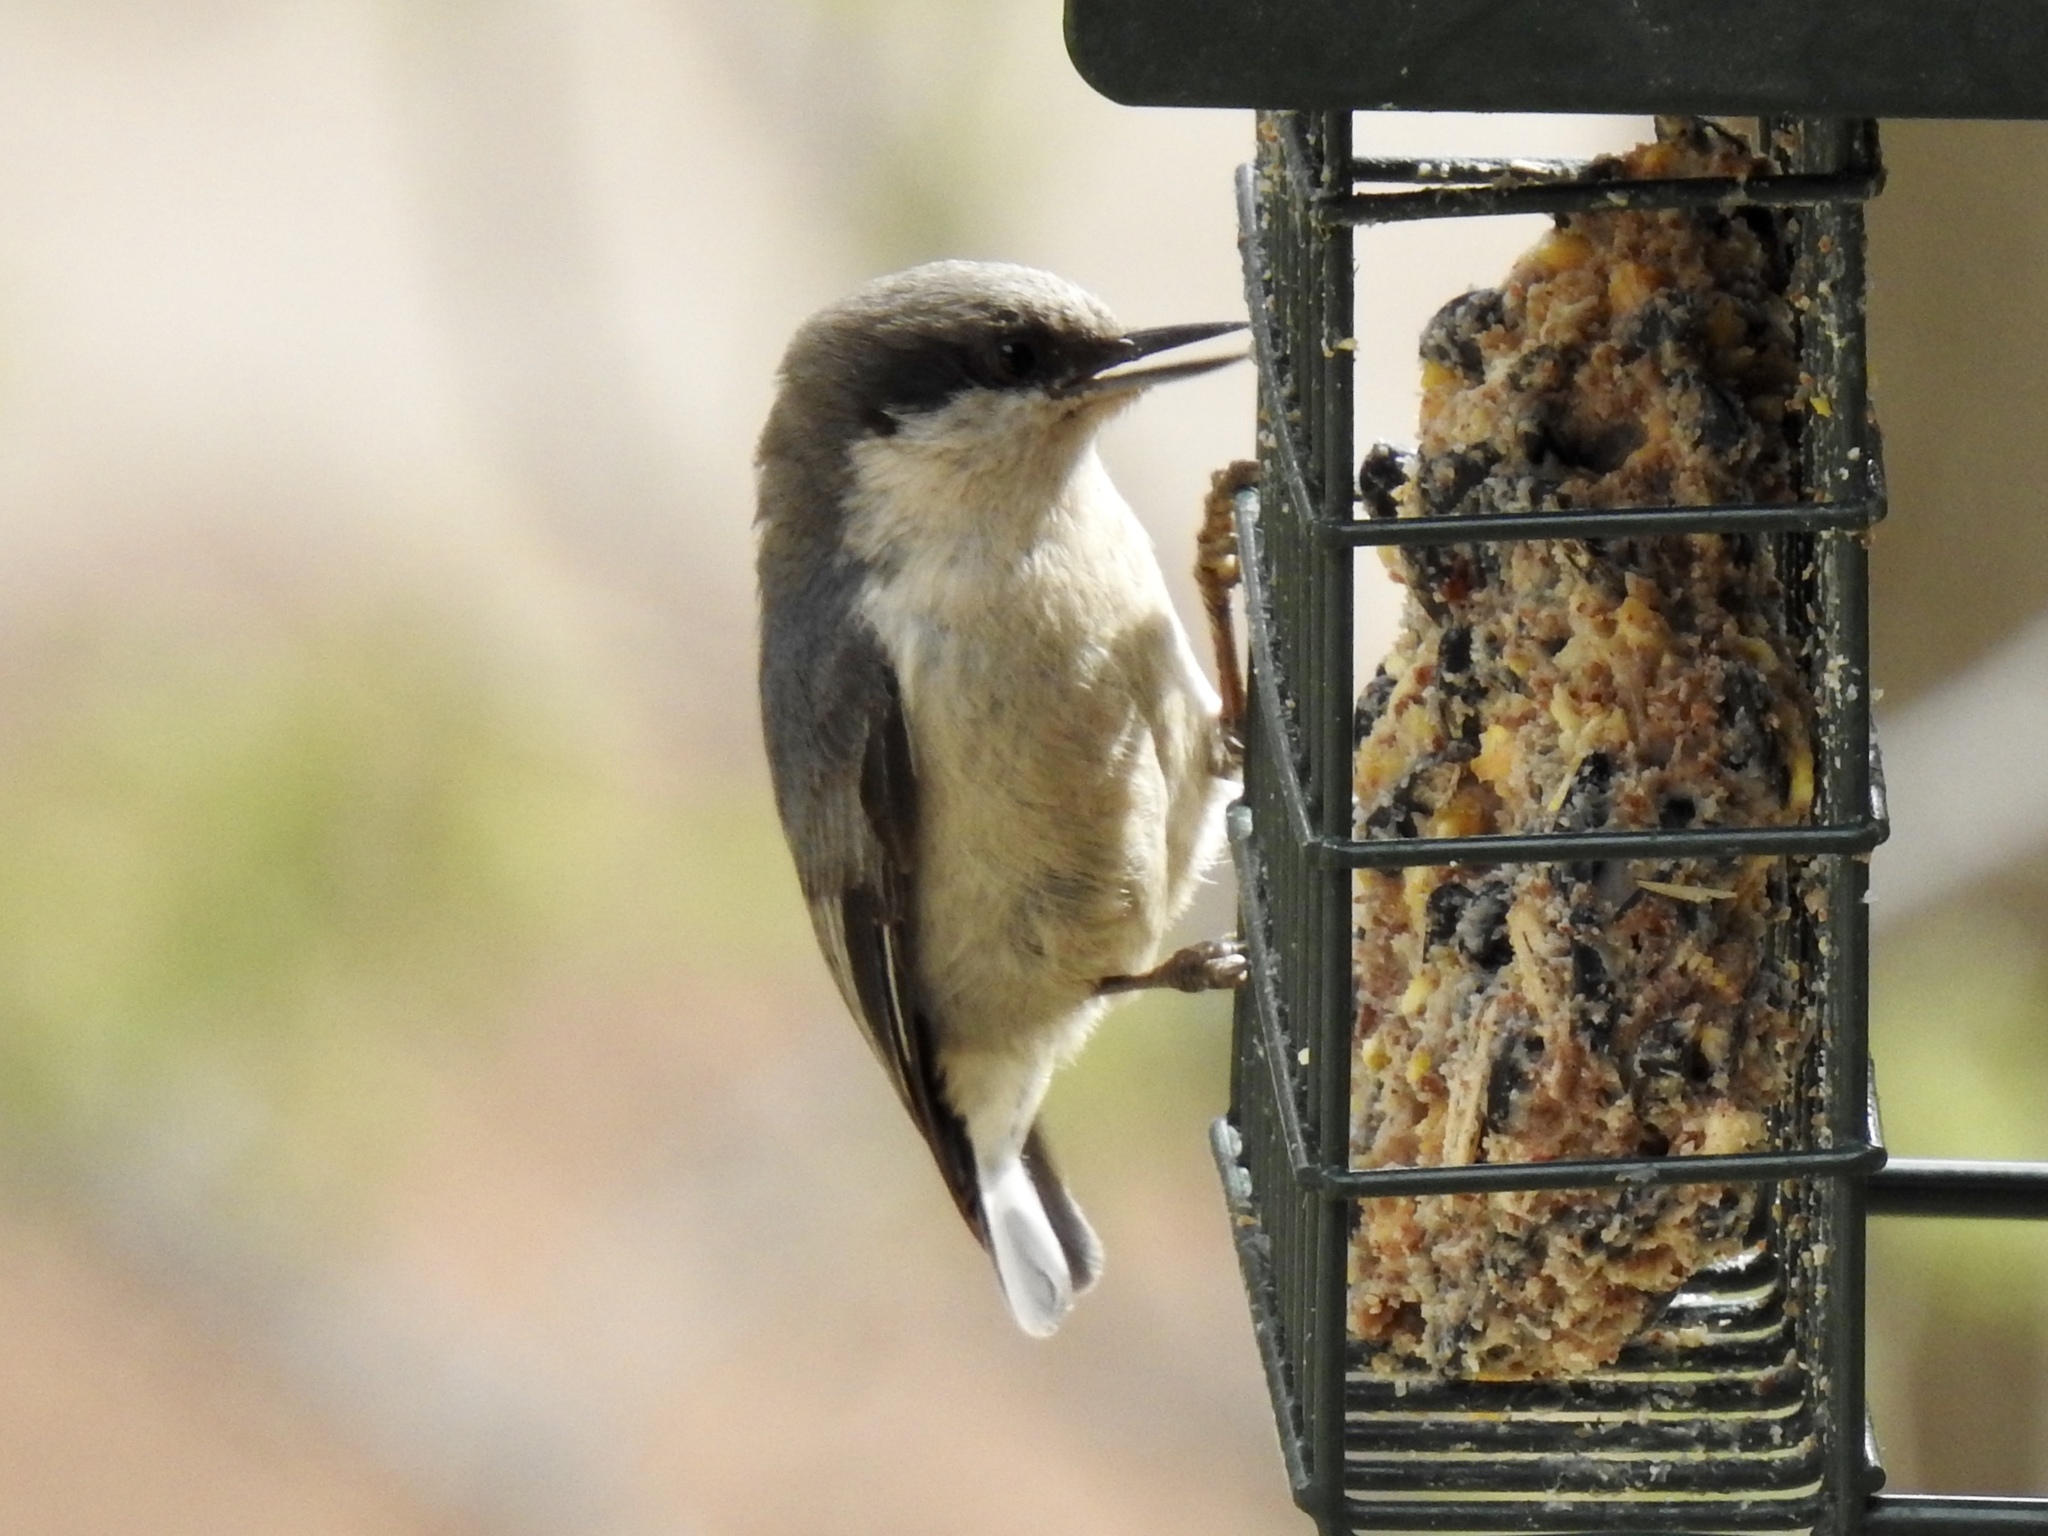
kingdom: Animalia
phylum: Chordata
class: Aves
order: Passeriformes
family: Sittidae
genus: Sitta
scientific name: Sitta pygmaea
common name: Pygmy nuthatch
